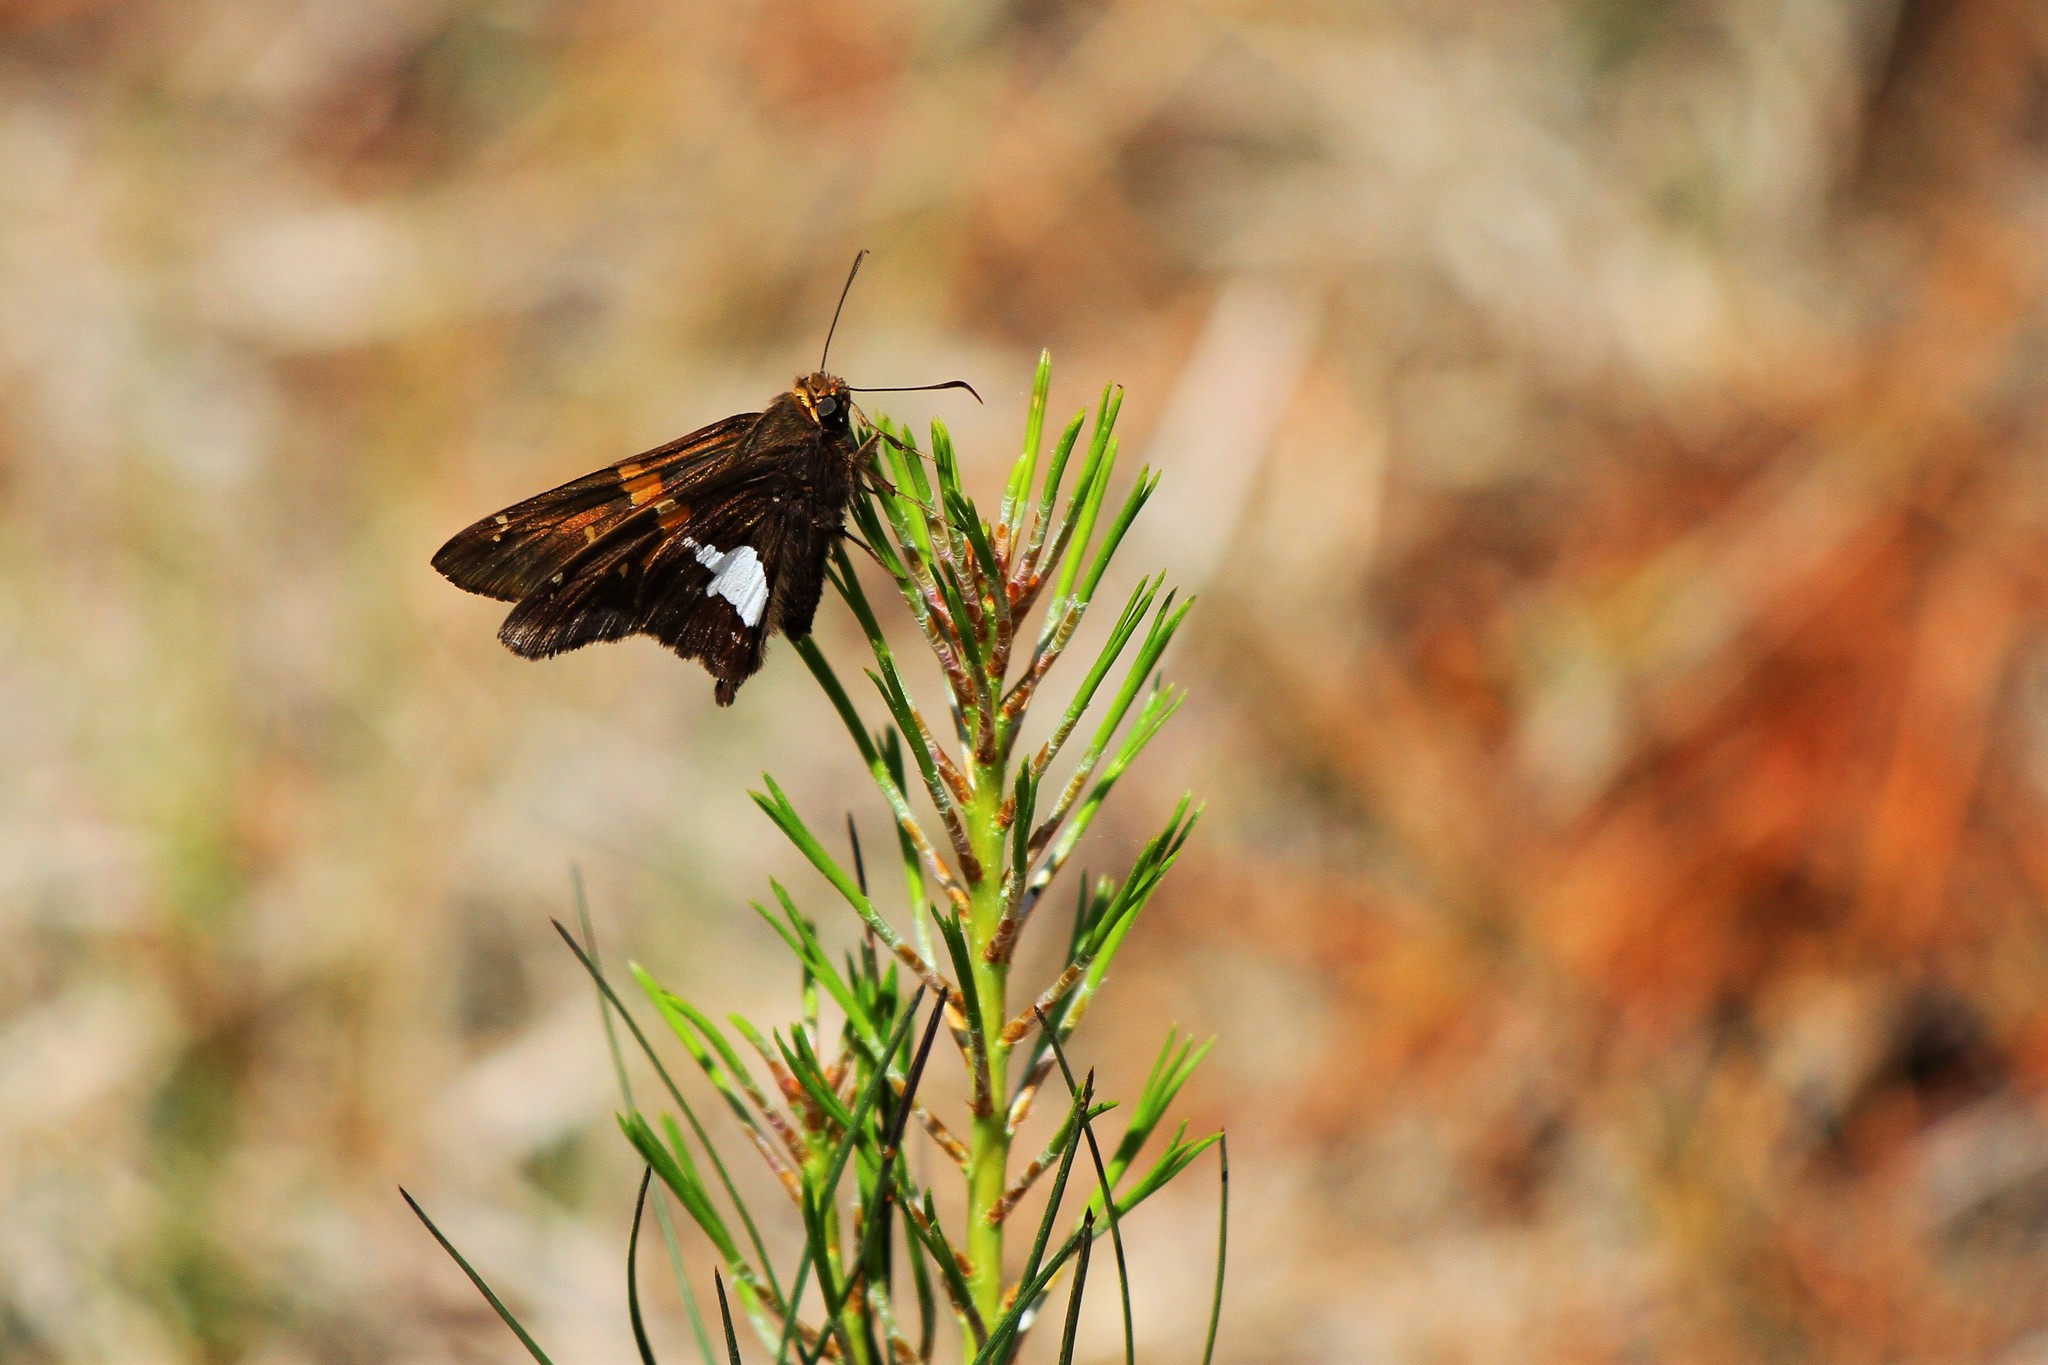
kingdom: Animalia
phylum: Arthropoda
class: Insecta
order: Lepidoptera
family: Hesperiidae
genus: Epargyreus
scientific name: Epargyreus clarus
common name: Silver-spotted skipper
